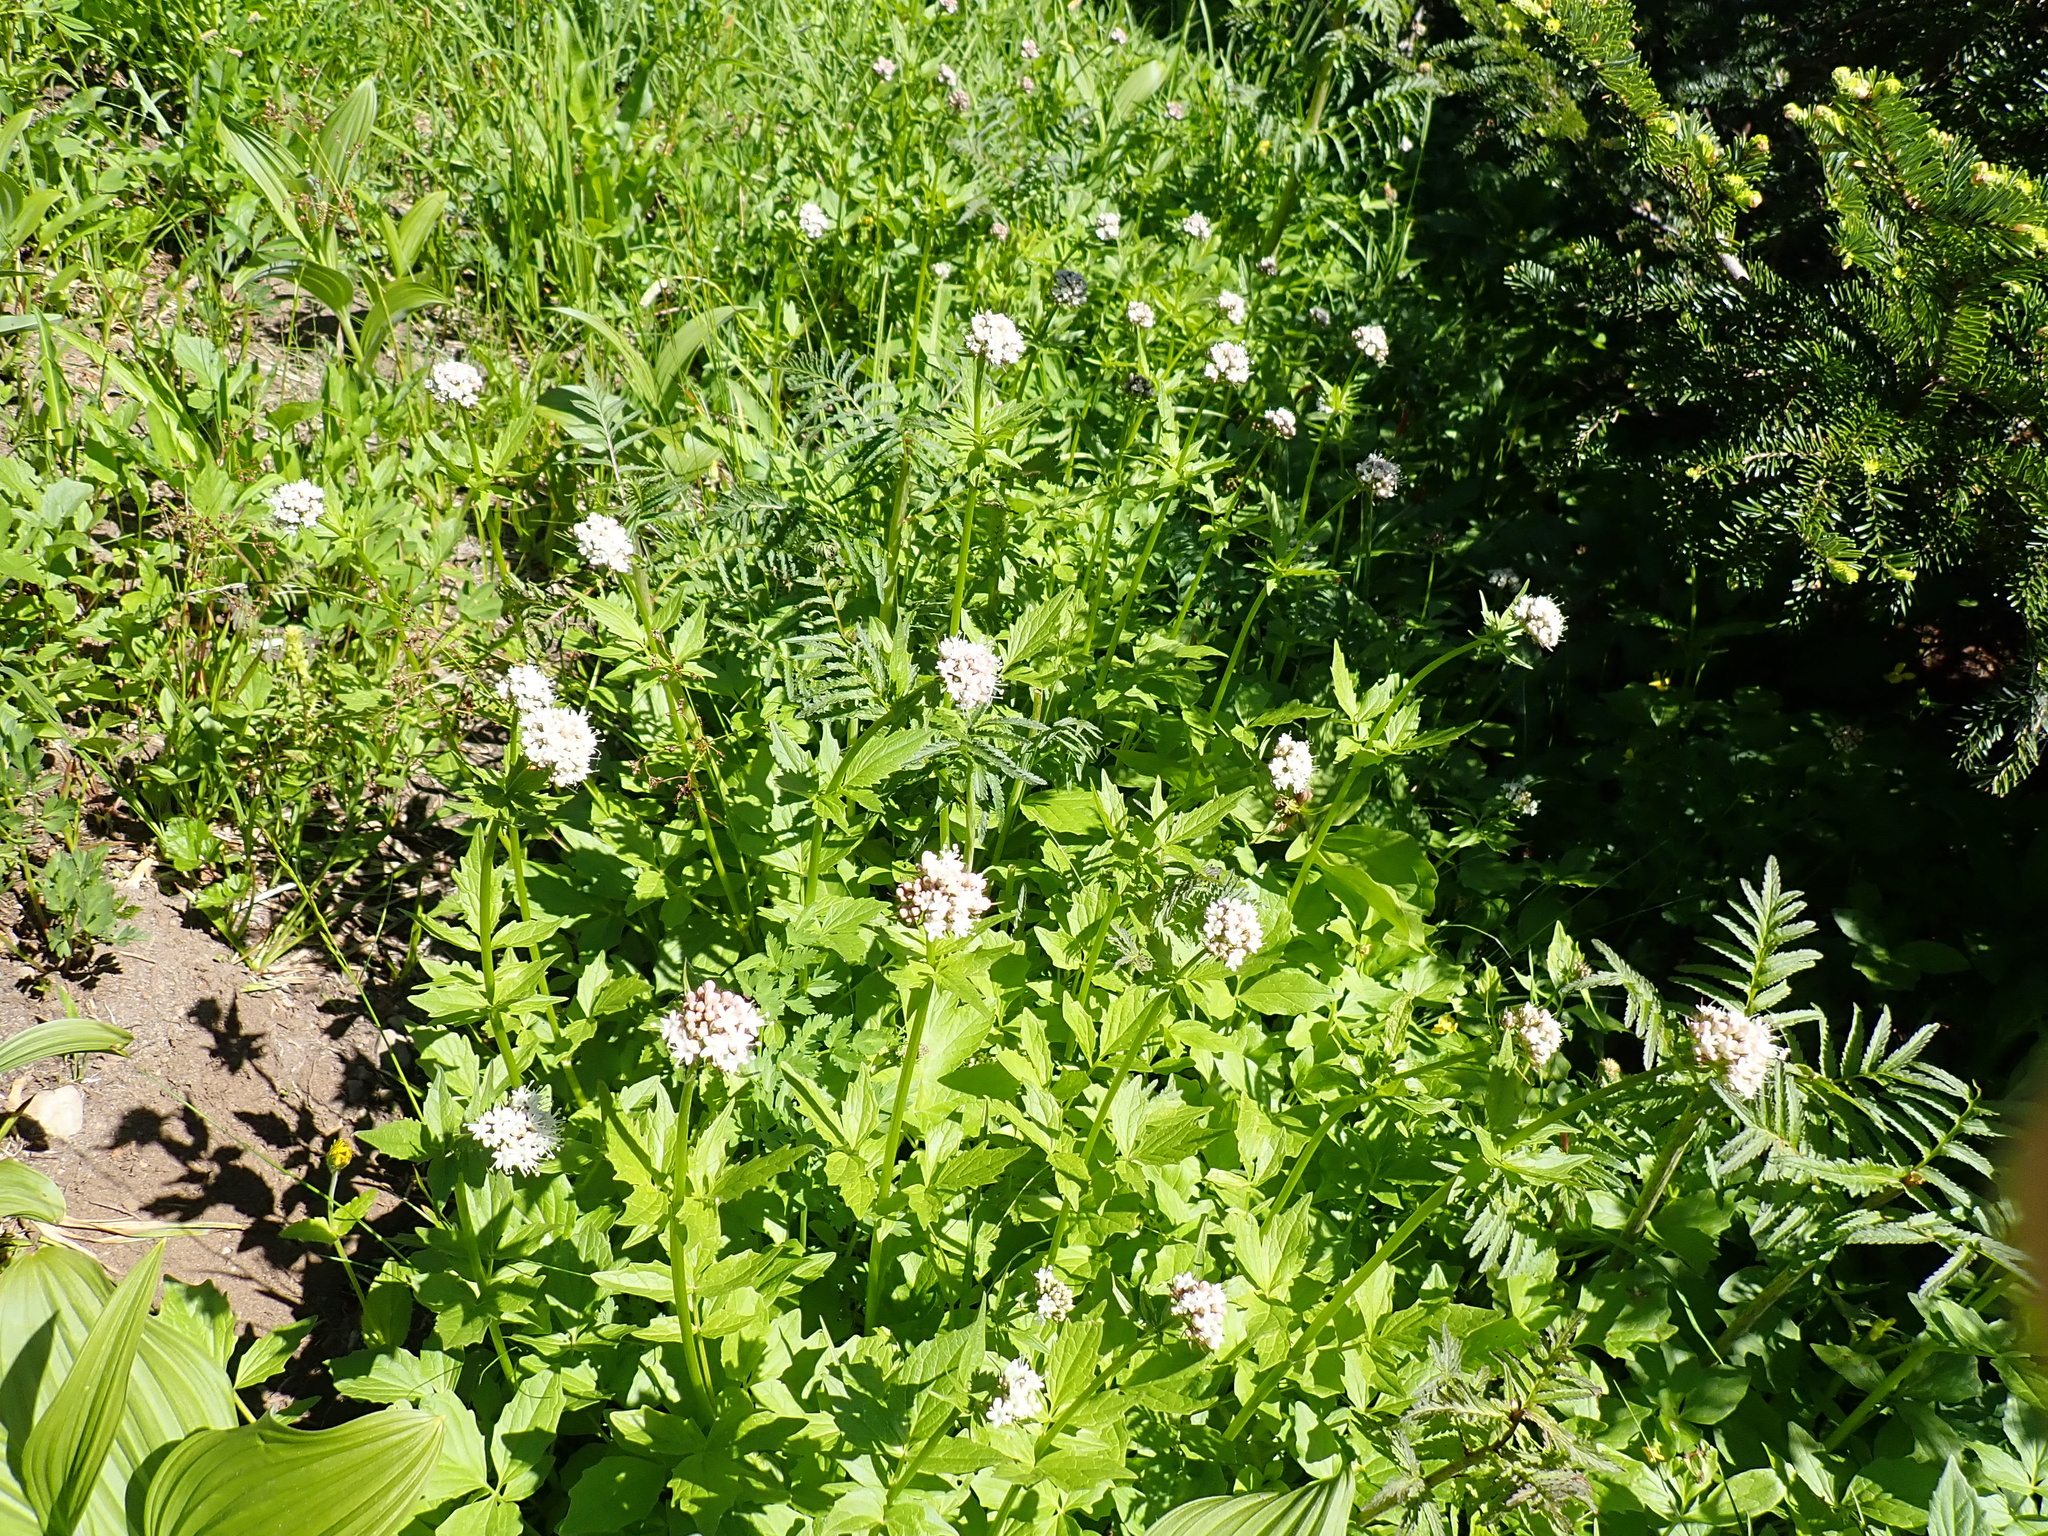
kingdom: Plantae
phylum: Tracheophyta
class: Magnoliopsida
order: Dipsacales
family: Caprifoliaceae
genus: Valeriana
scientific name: Valeriana sitchensis
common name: Pacific valerian
